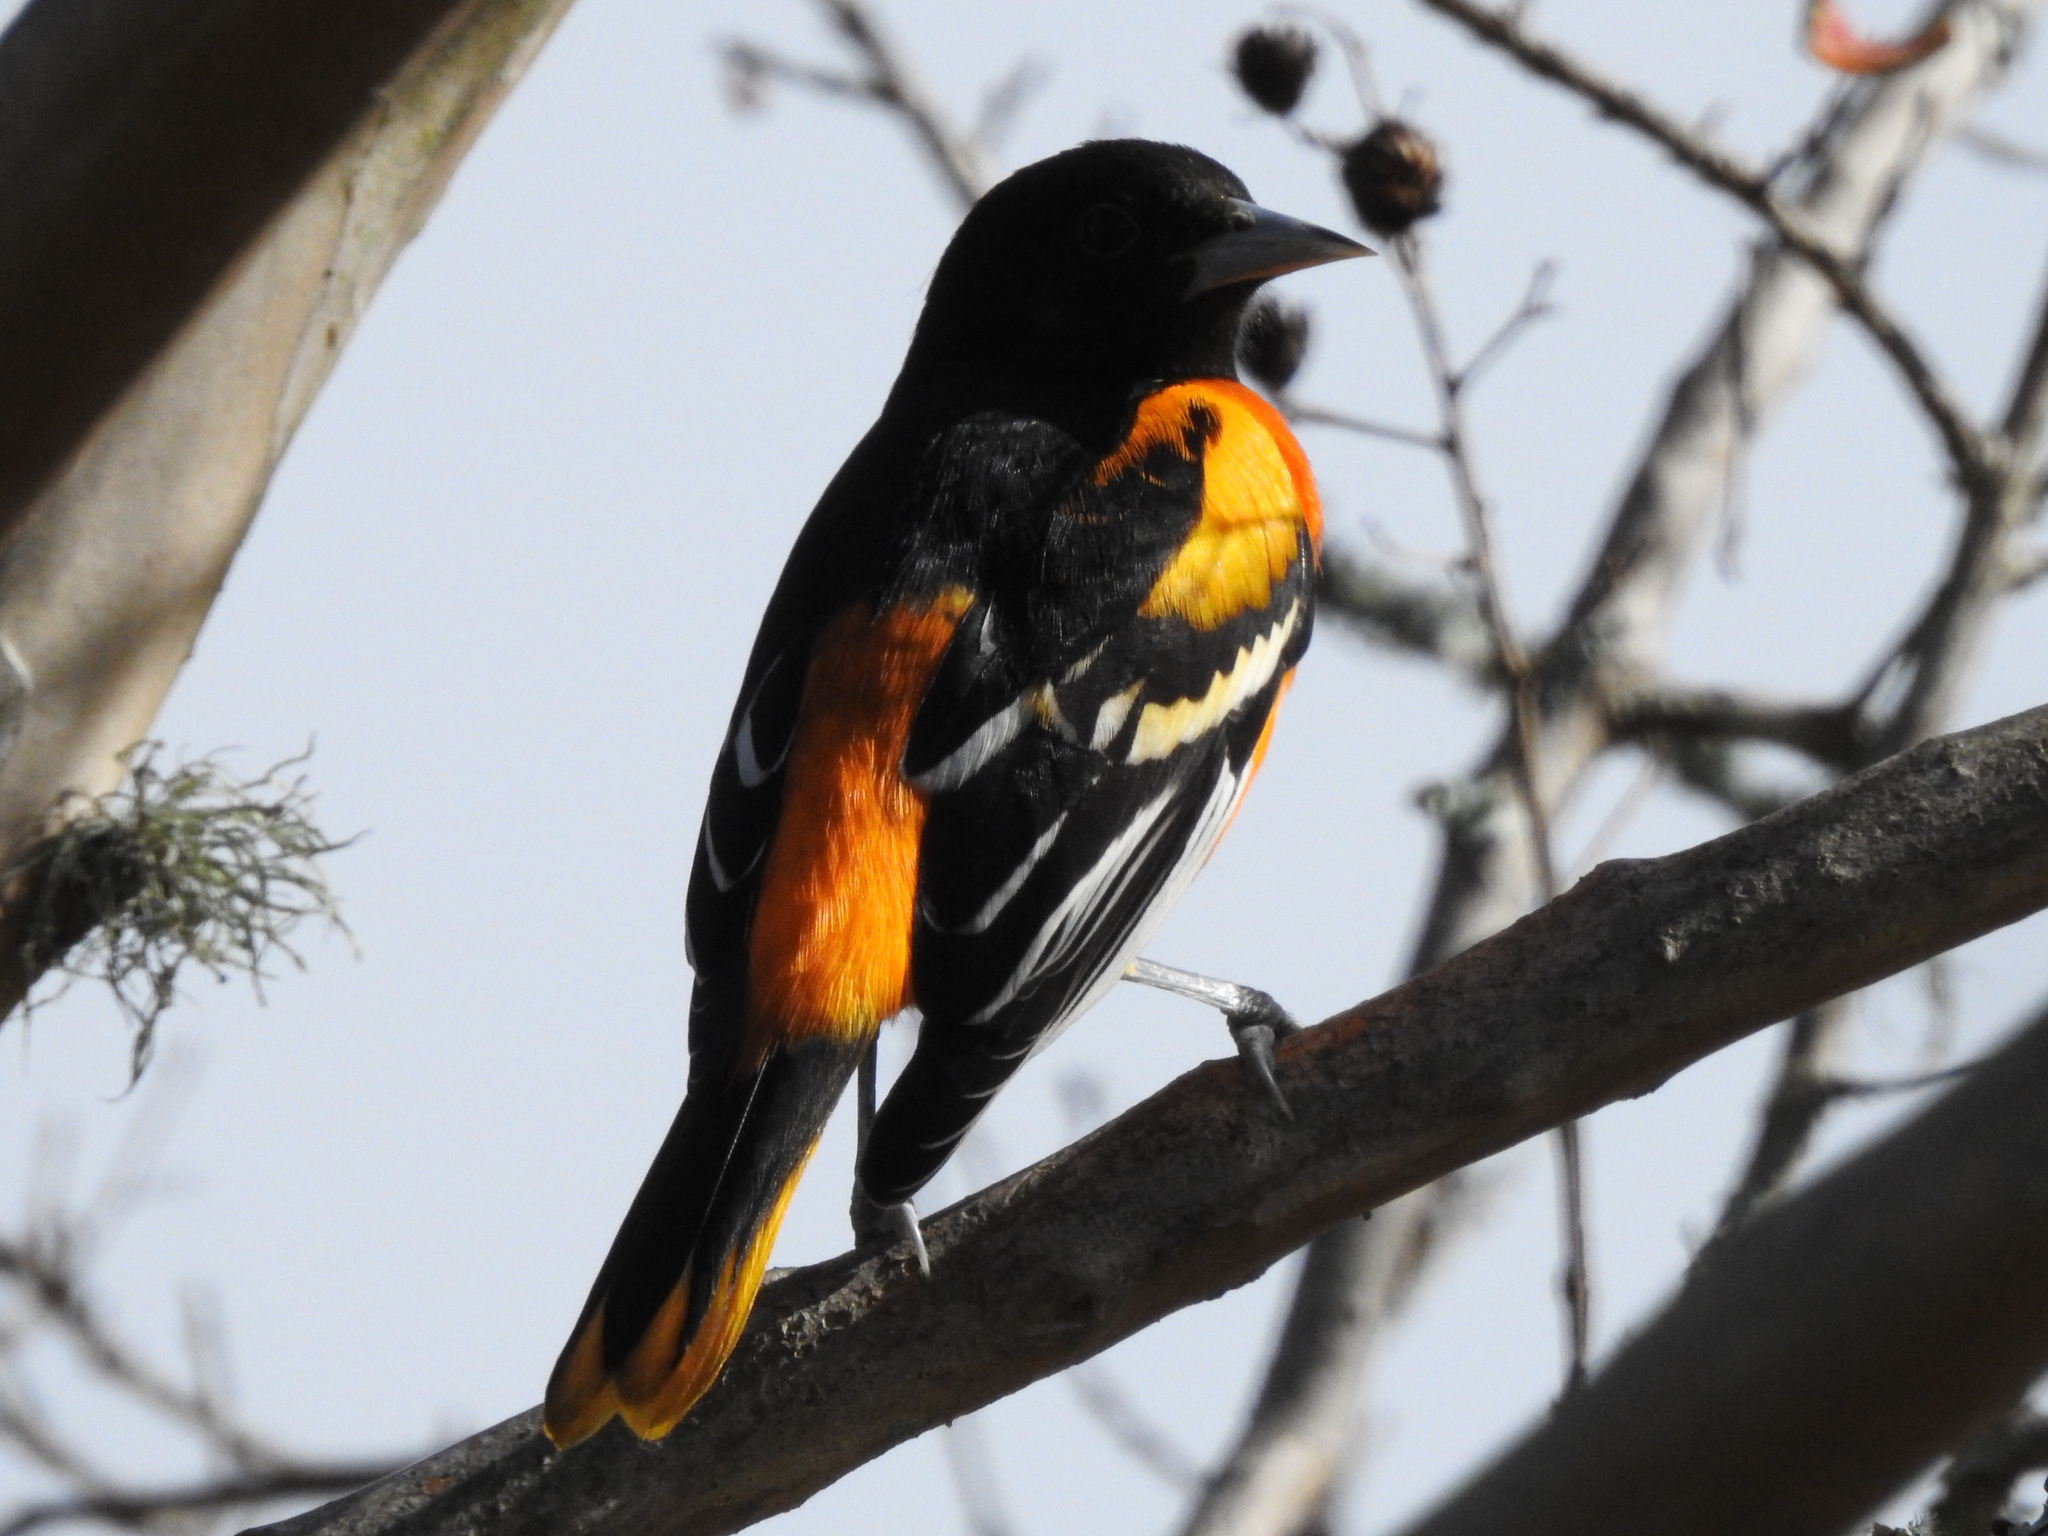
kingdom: Animalia
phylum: Chordata
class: Aves
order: Passeriformes
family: Icteridae
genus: Icterus
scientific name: Icterus galbula
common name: Baltimore oriole
